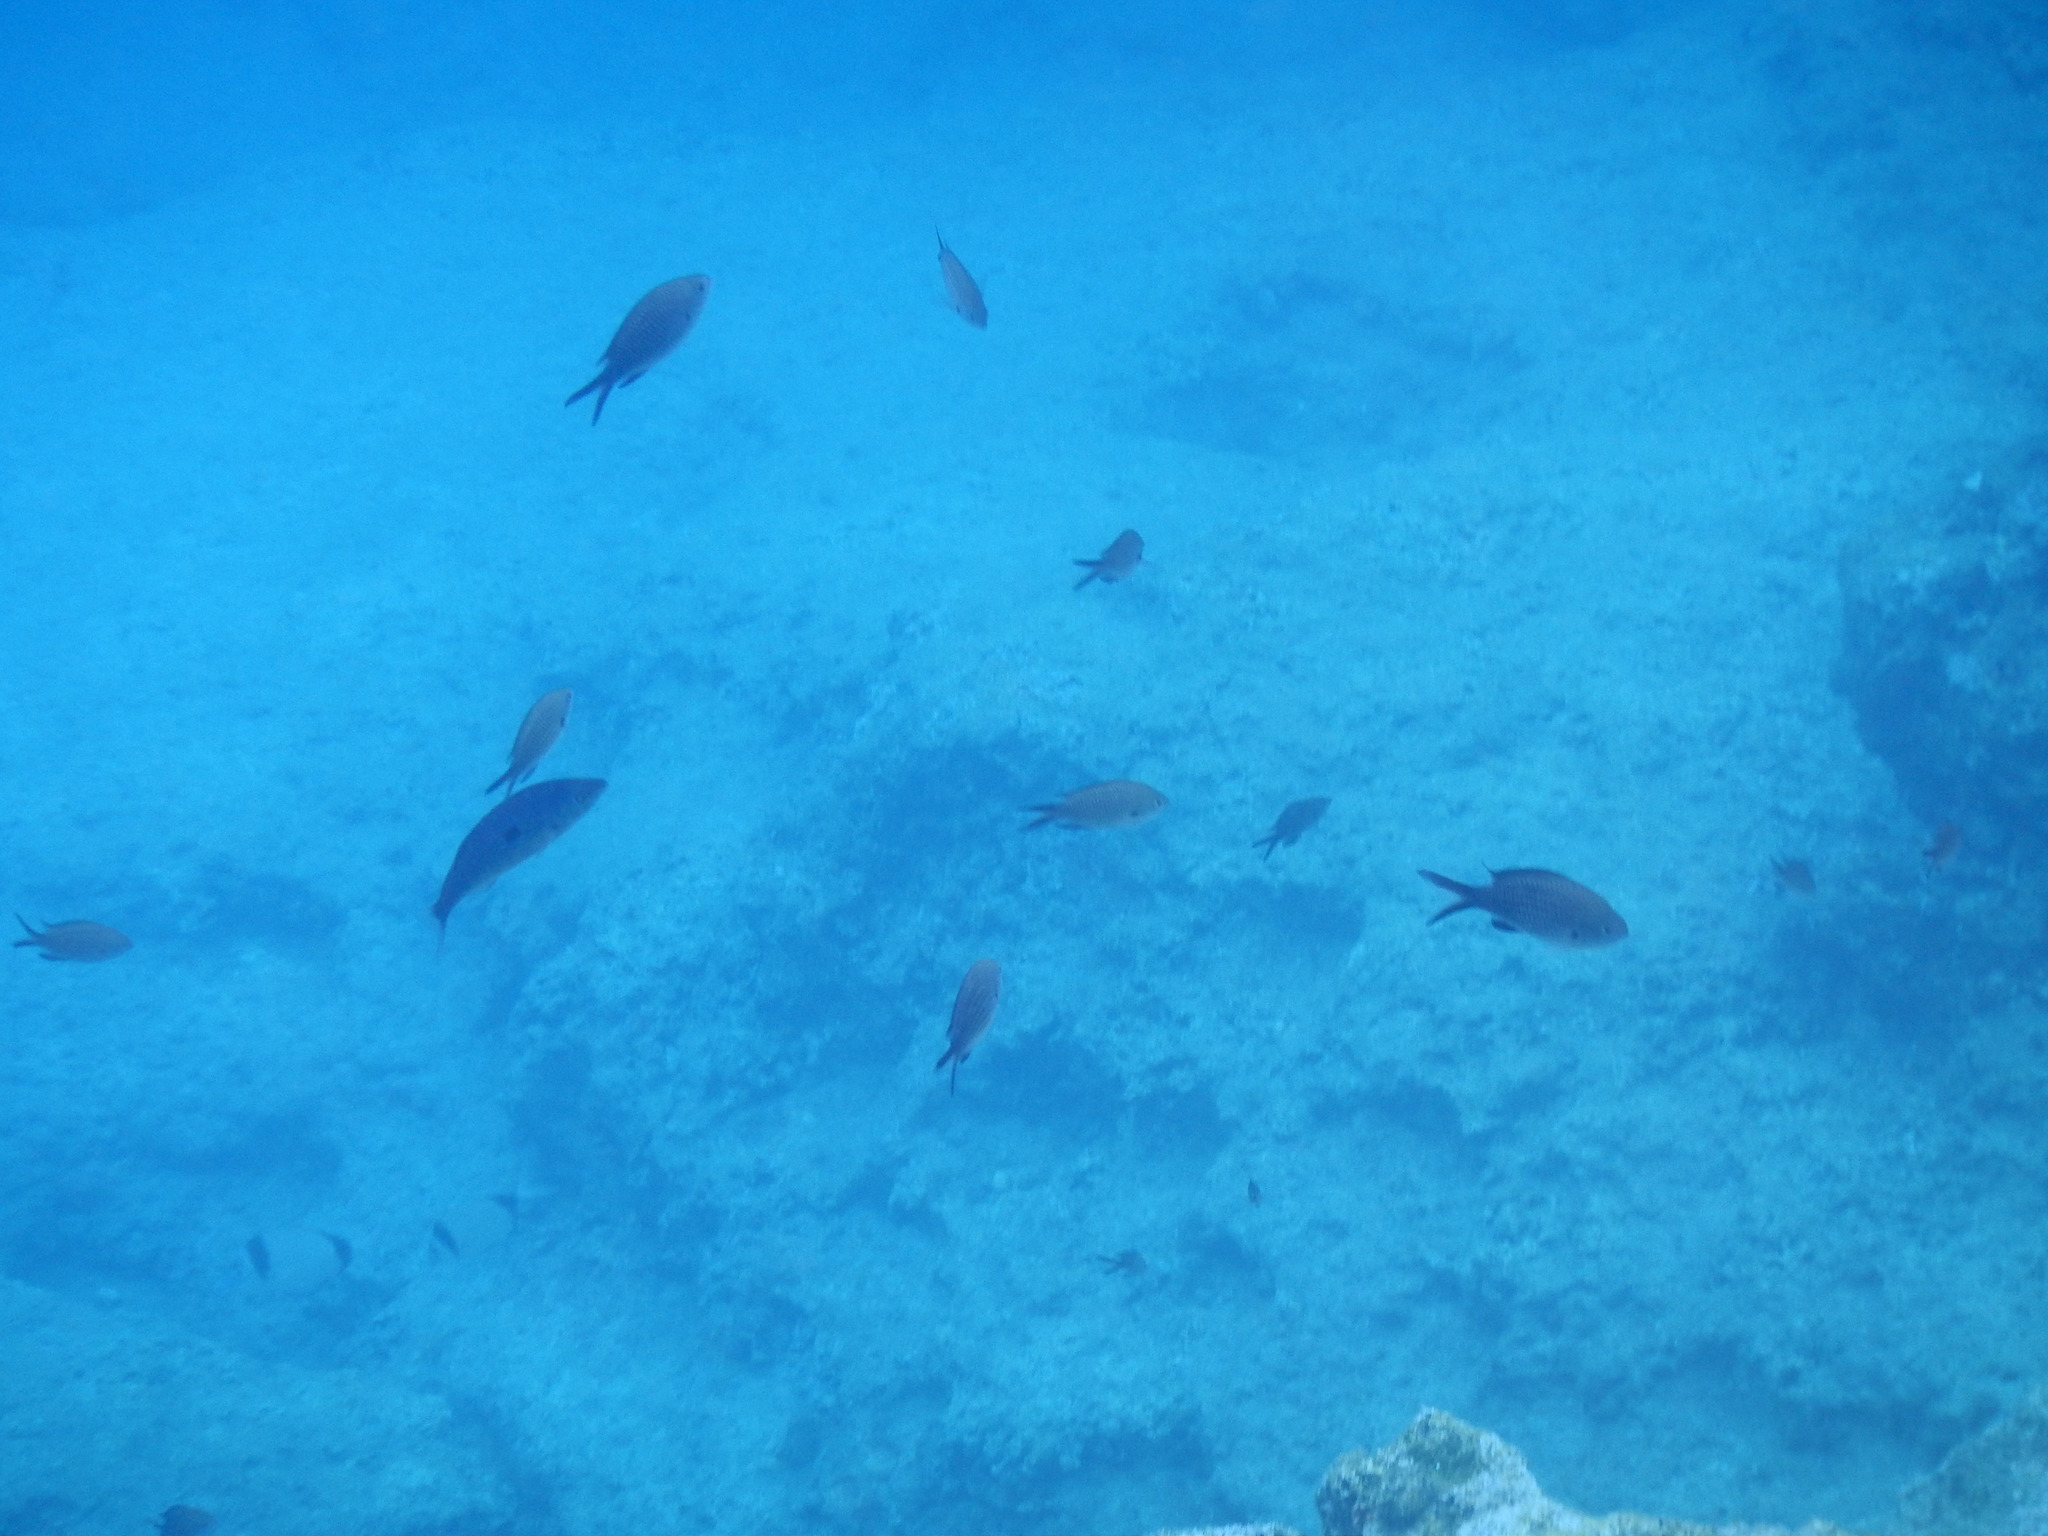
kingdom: Animalia
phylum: Chordata
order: Perciformes
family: Pomacentridae
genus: Chromis
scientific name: Chromis chromis
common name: Damselfish
